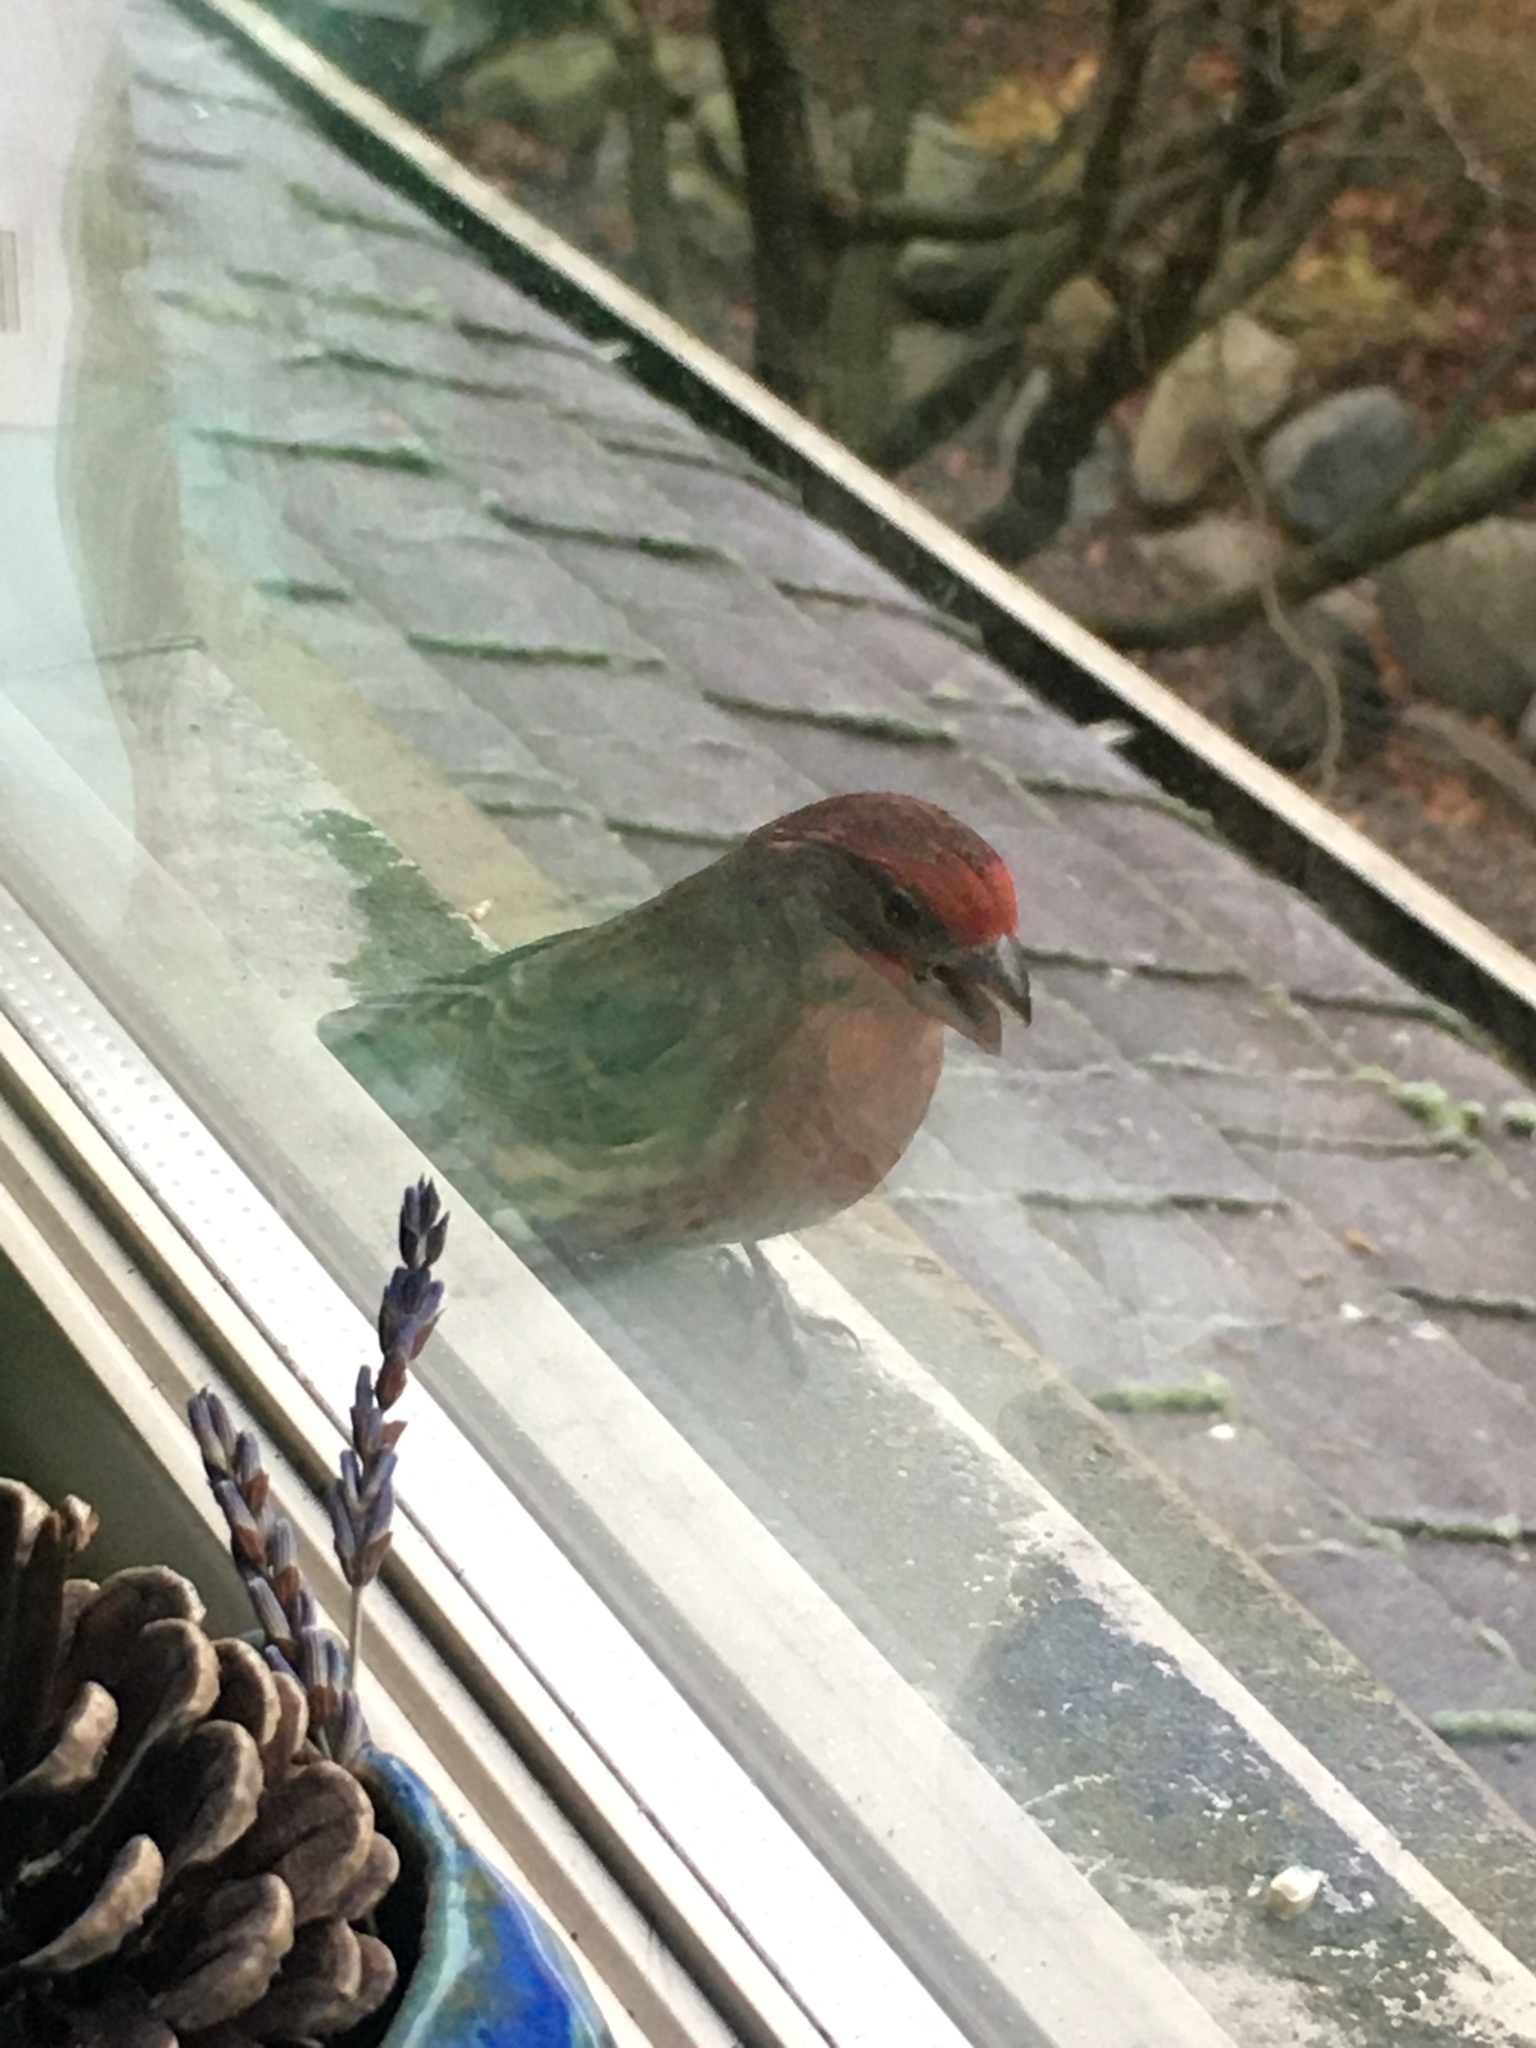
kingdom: Animalia
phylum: Chordata
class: Aves
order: Passeriformes
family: Fringillidae
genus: Haemorhous
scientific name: Haemorhous mexicanus
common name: House finch
